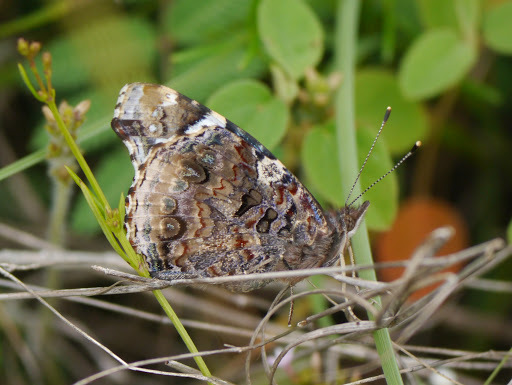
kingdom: Animalia
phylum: Arthropoda
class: Insecta
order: Lepidoptera
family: Nymphalidae
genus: Vanessa
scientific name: Vanessa atalanta
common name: Red admiral
